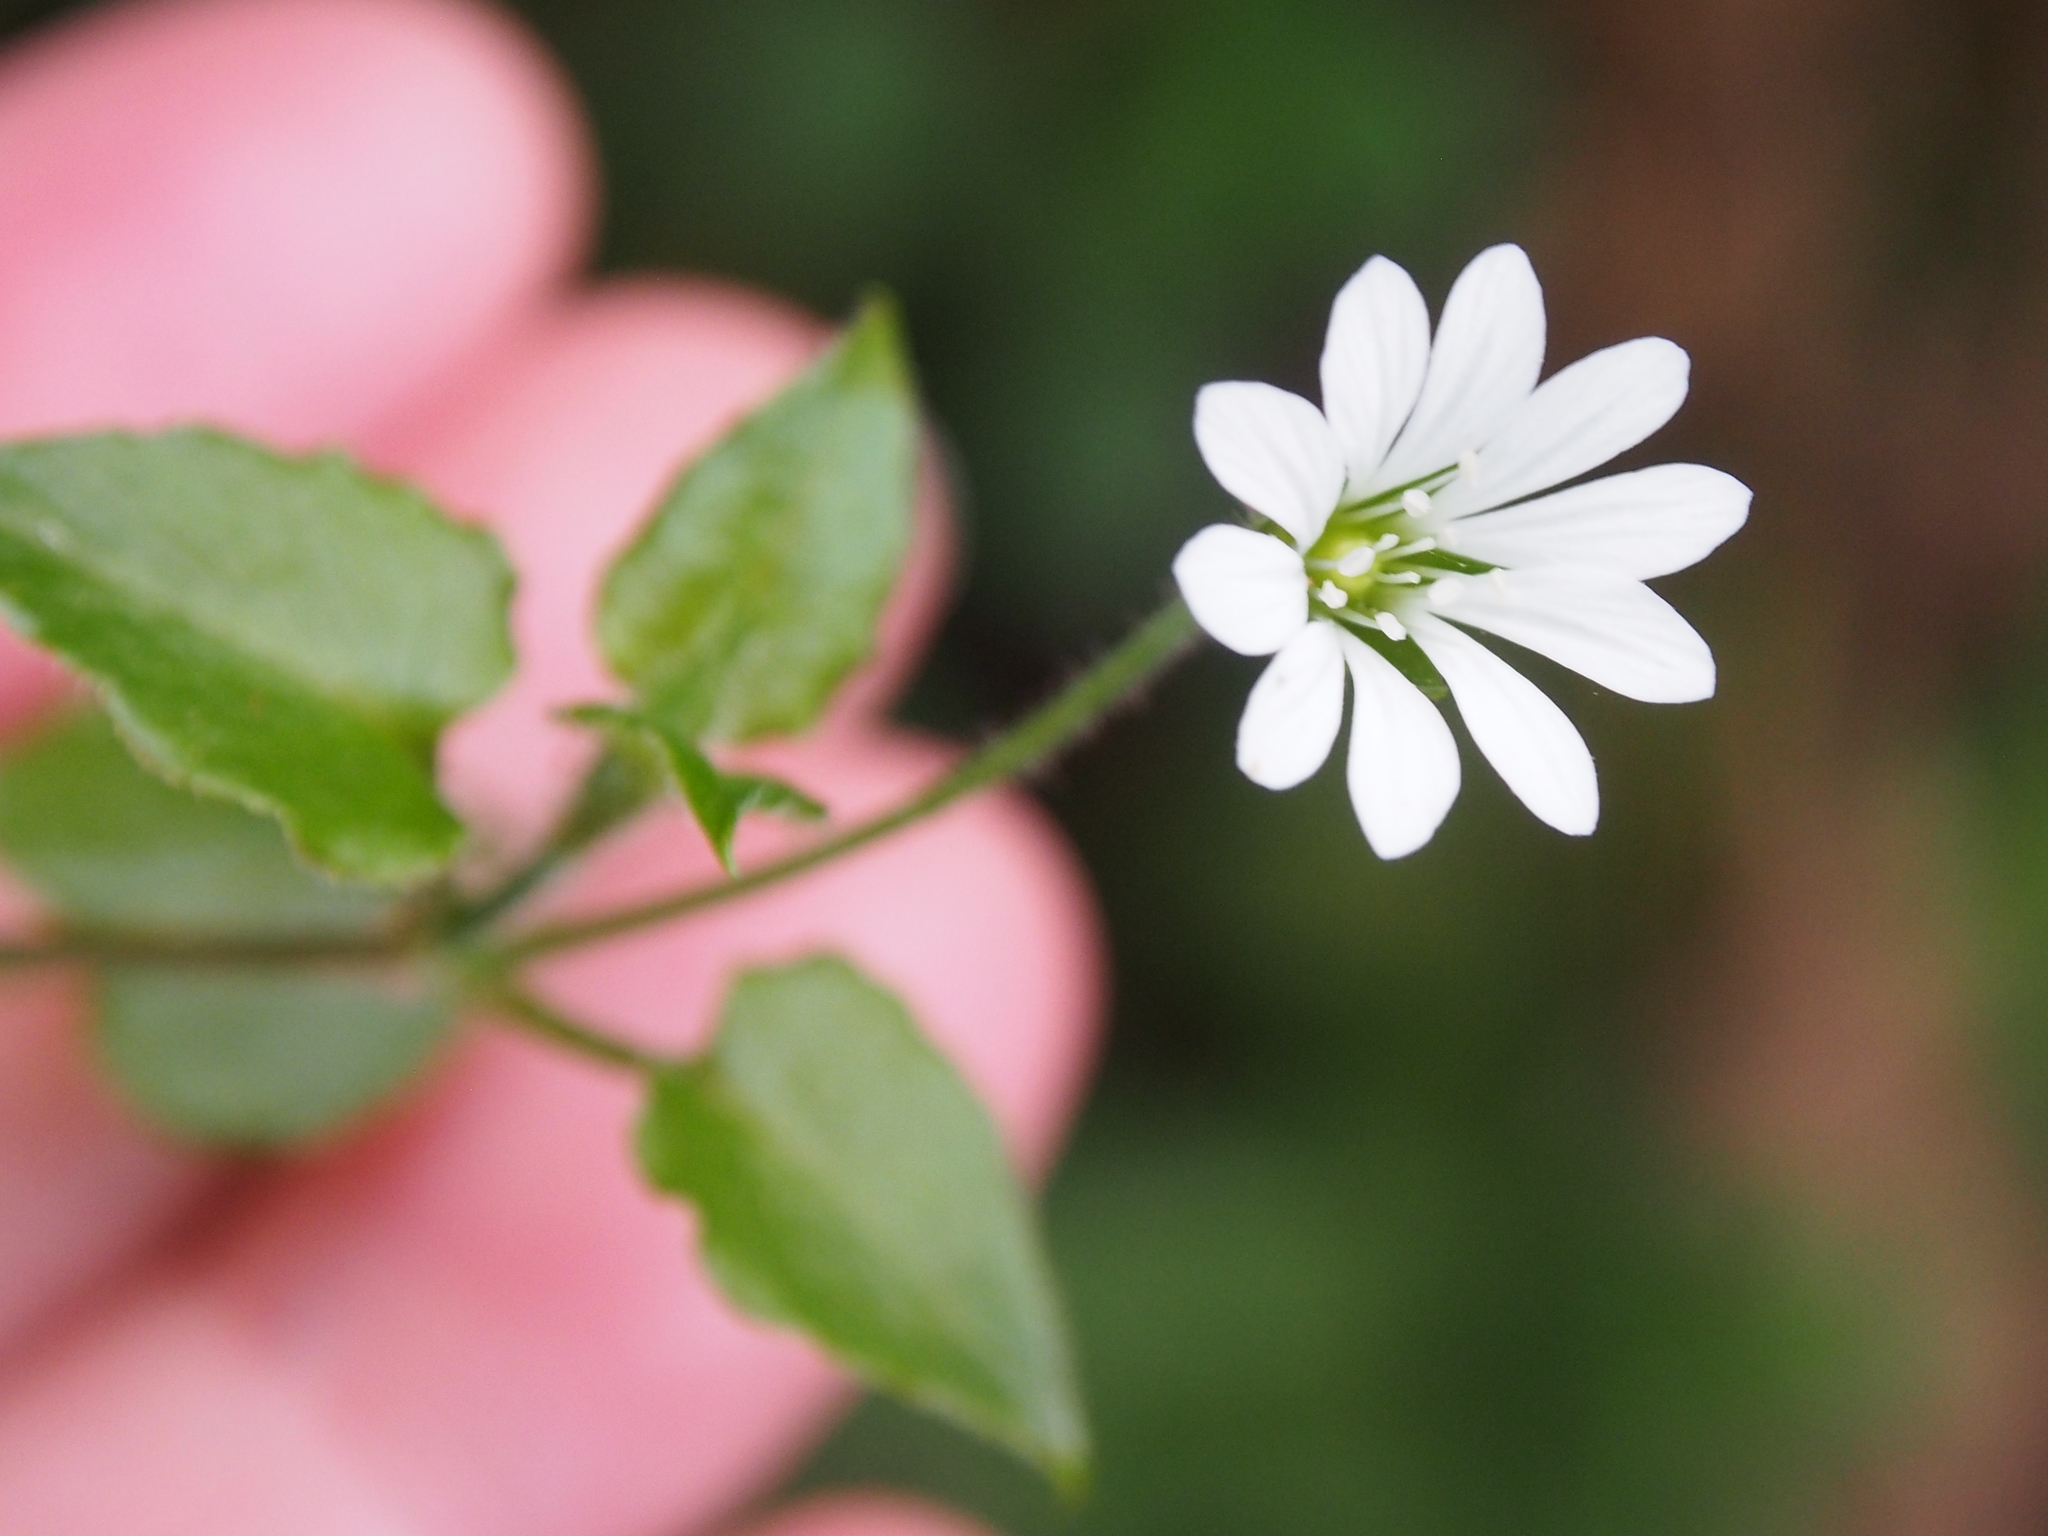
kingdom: Plantae
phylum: Tracheophyta
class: Magnoliopsida
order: Caryophyllales
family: Caryophyllaceae
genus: Stellaria
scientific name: Stellaria cuspidata
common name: Mexican chickweed
